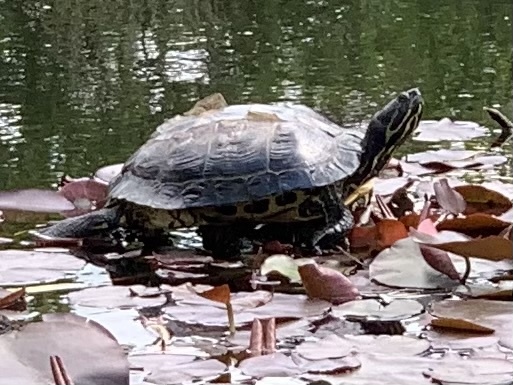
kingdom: Animalia
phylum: Chordata
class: Testudines
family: Emydidae
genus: Trachemys
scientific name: Trachemys scripta
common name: Slider
